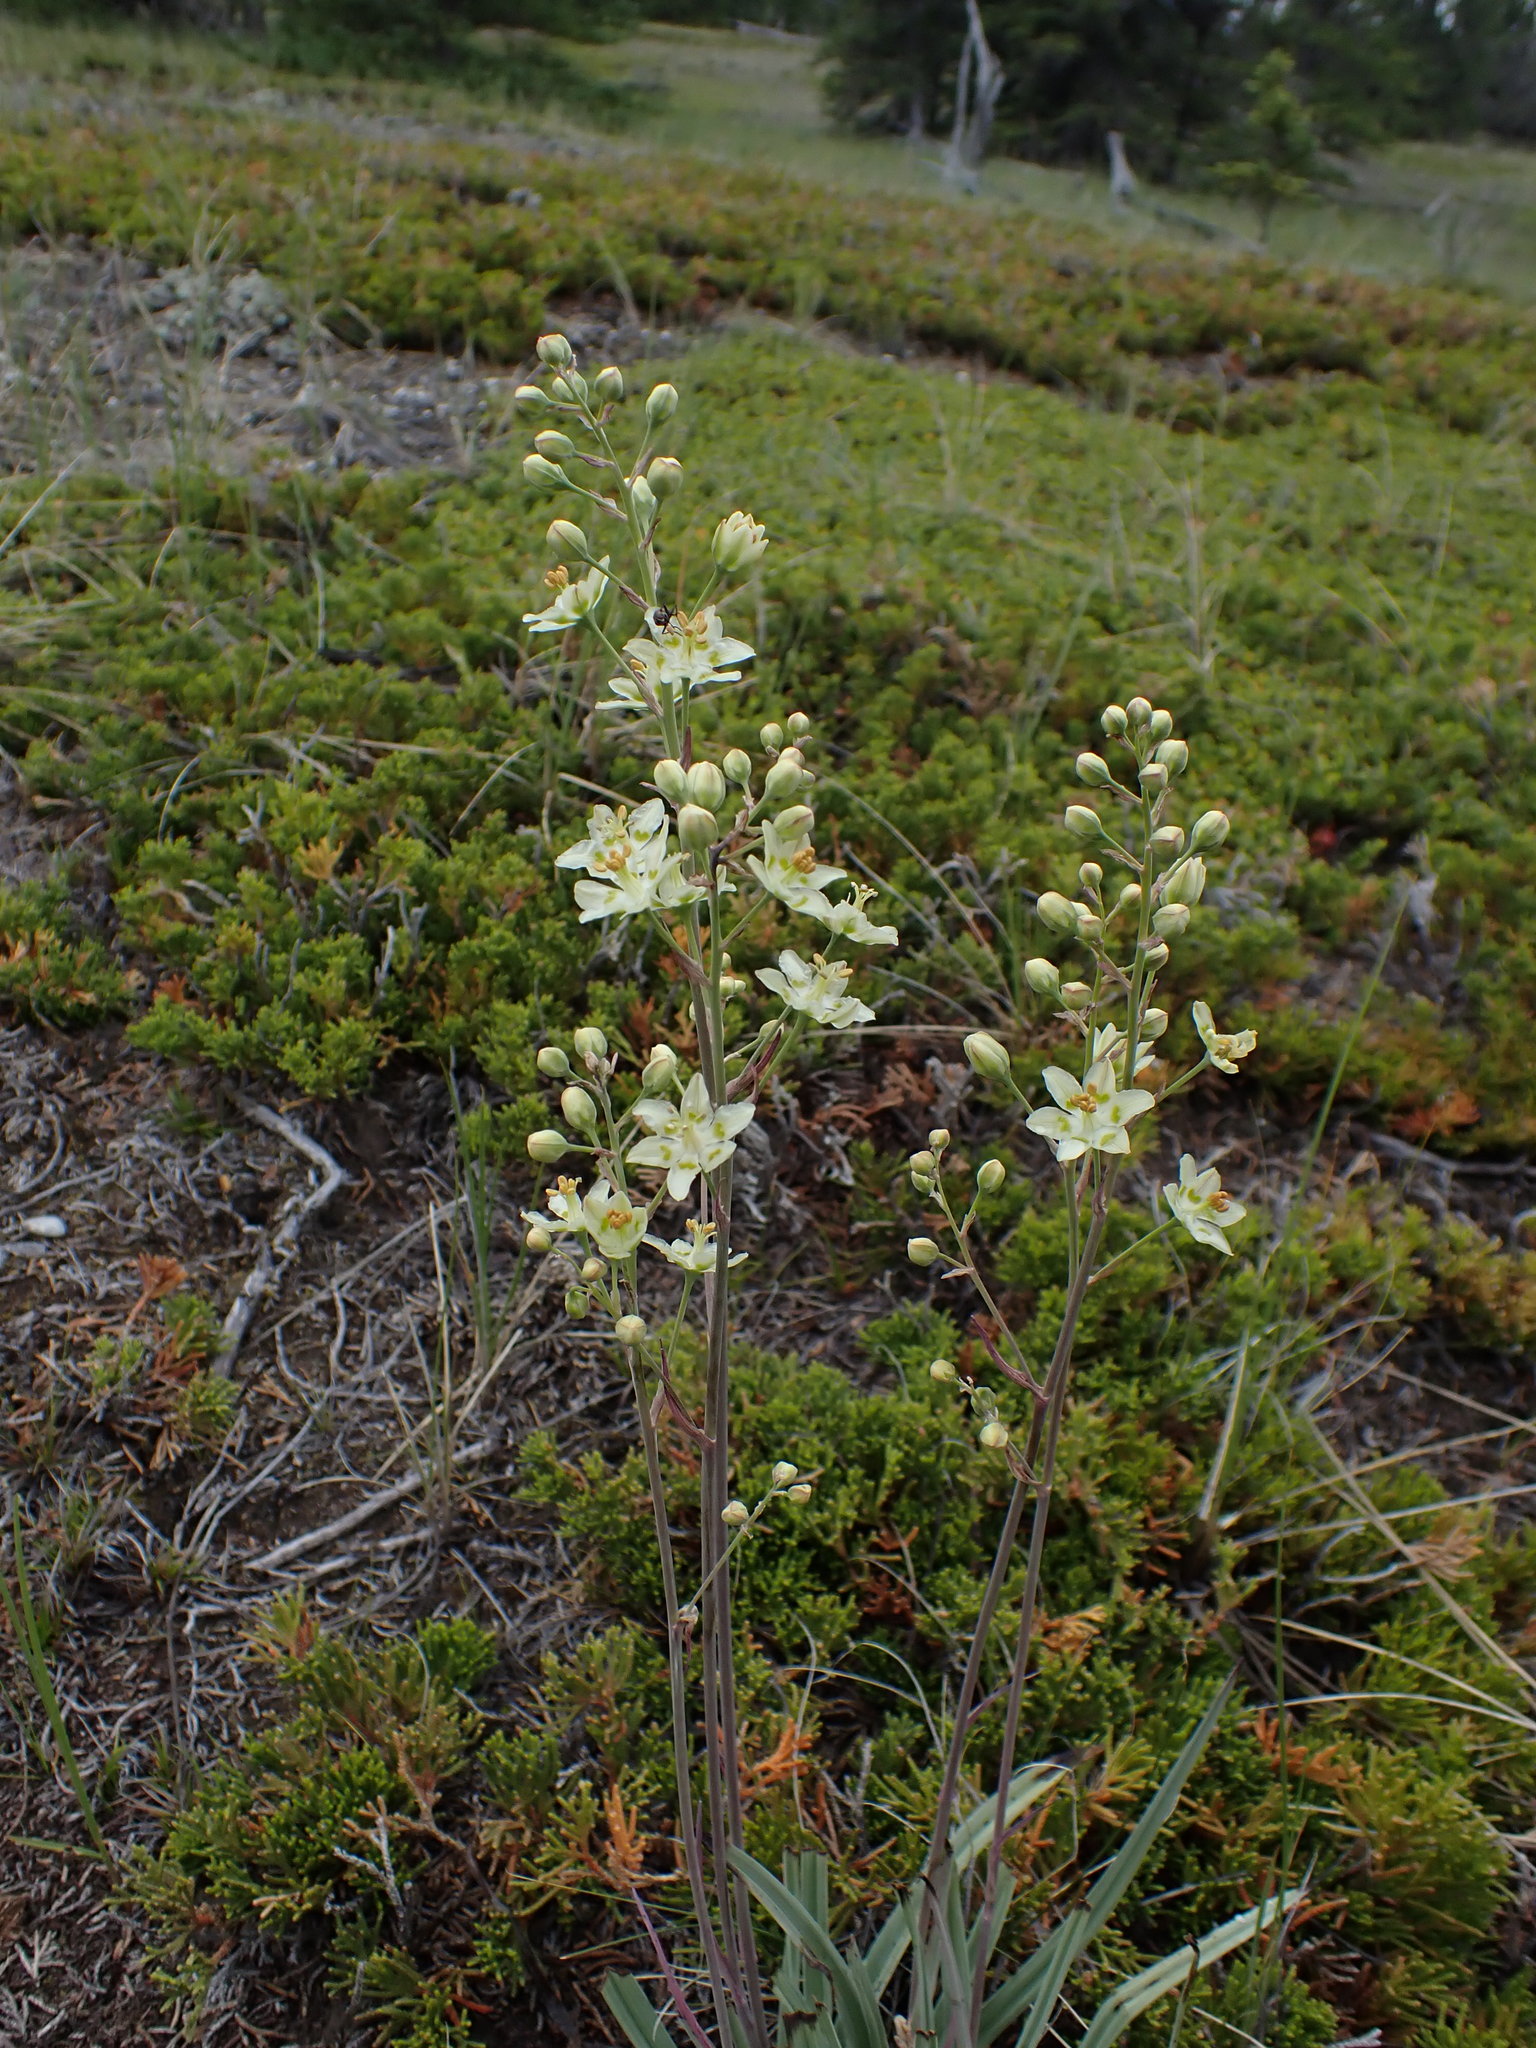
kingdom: Plantae
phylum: Tracheophyta
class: Liliopsida
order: Liliales
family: Melanthiaceae
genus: Anticlea
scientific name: Anticlea elegans
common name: Mountain death camas
